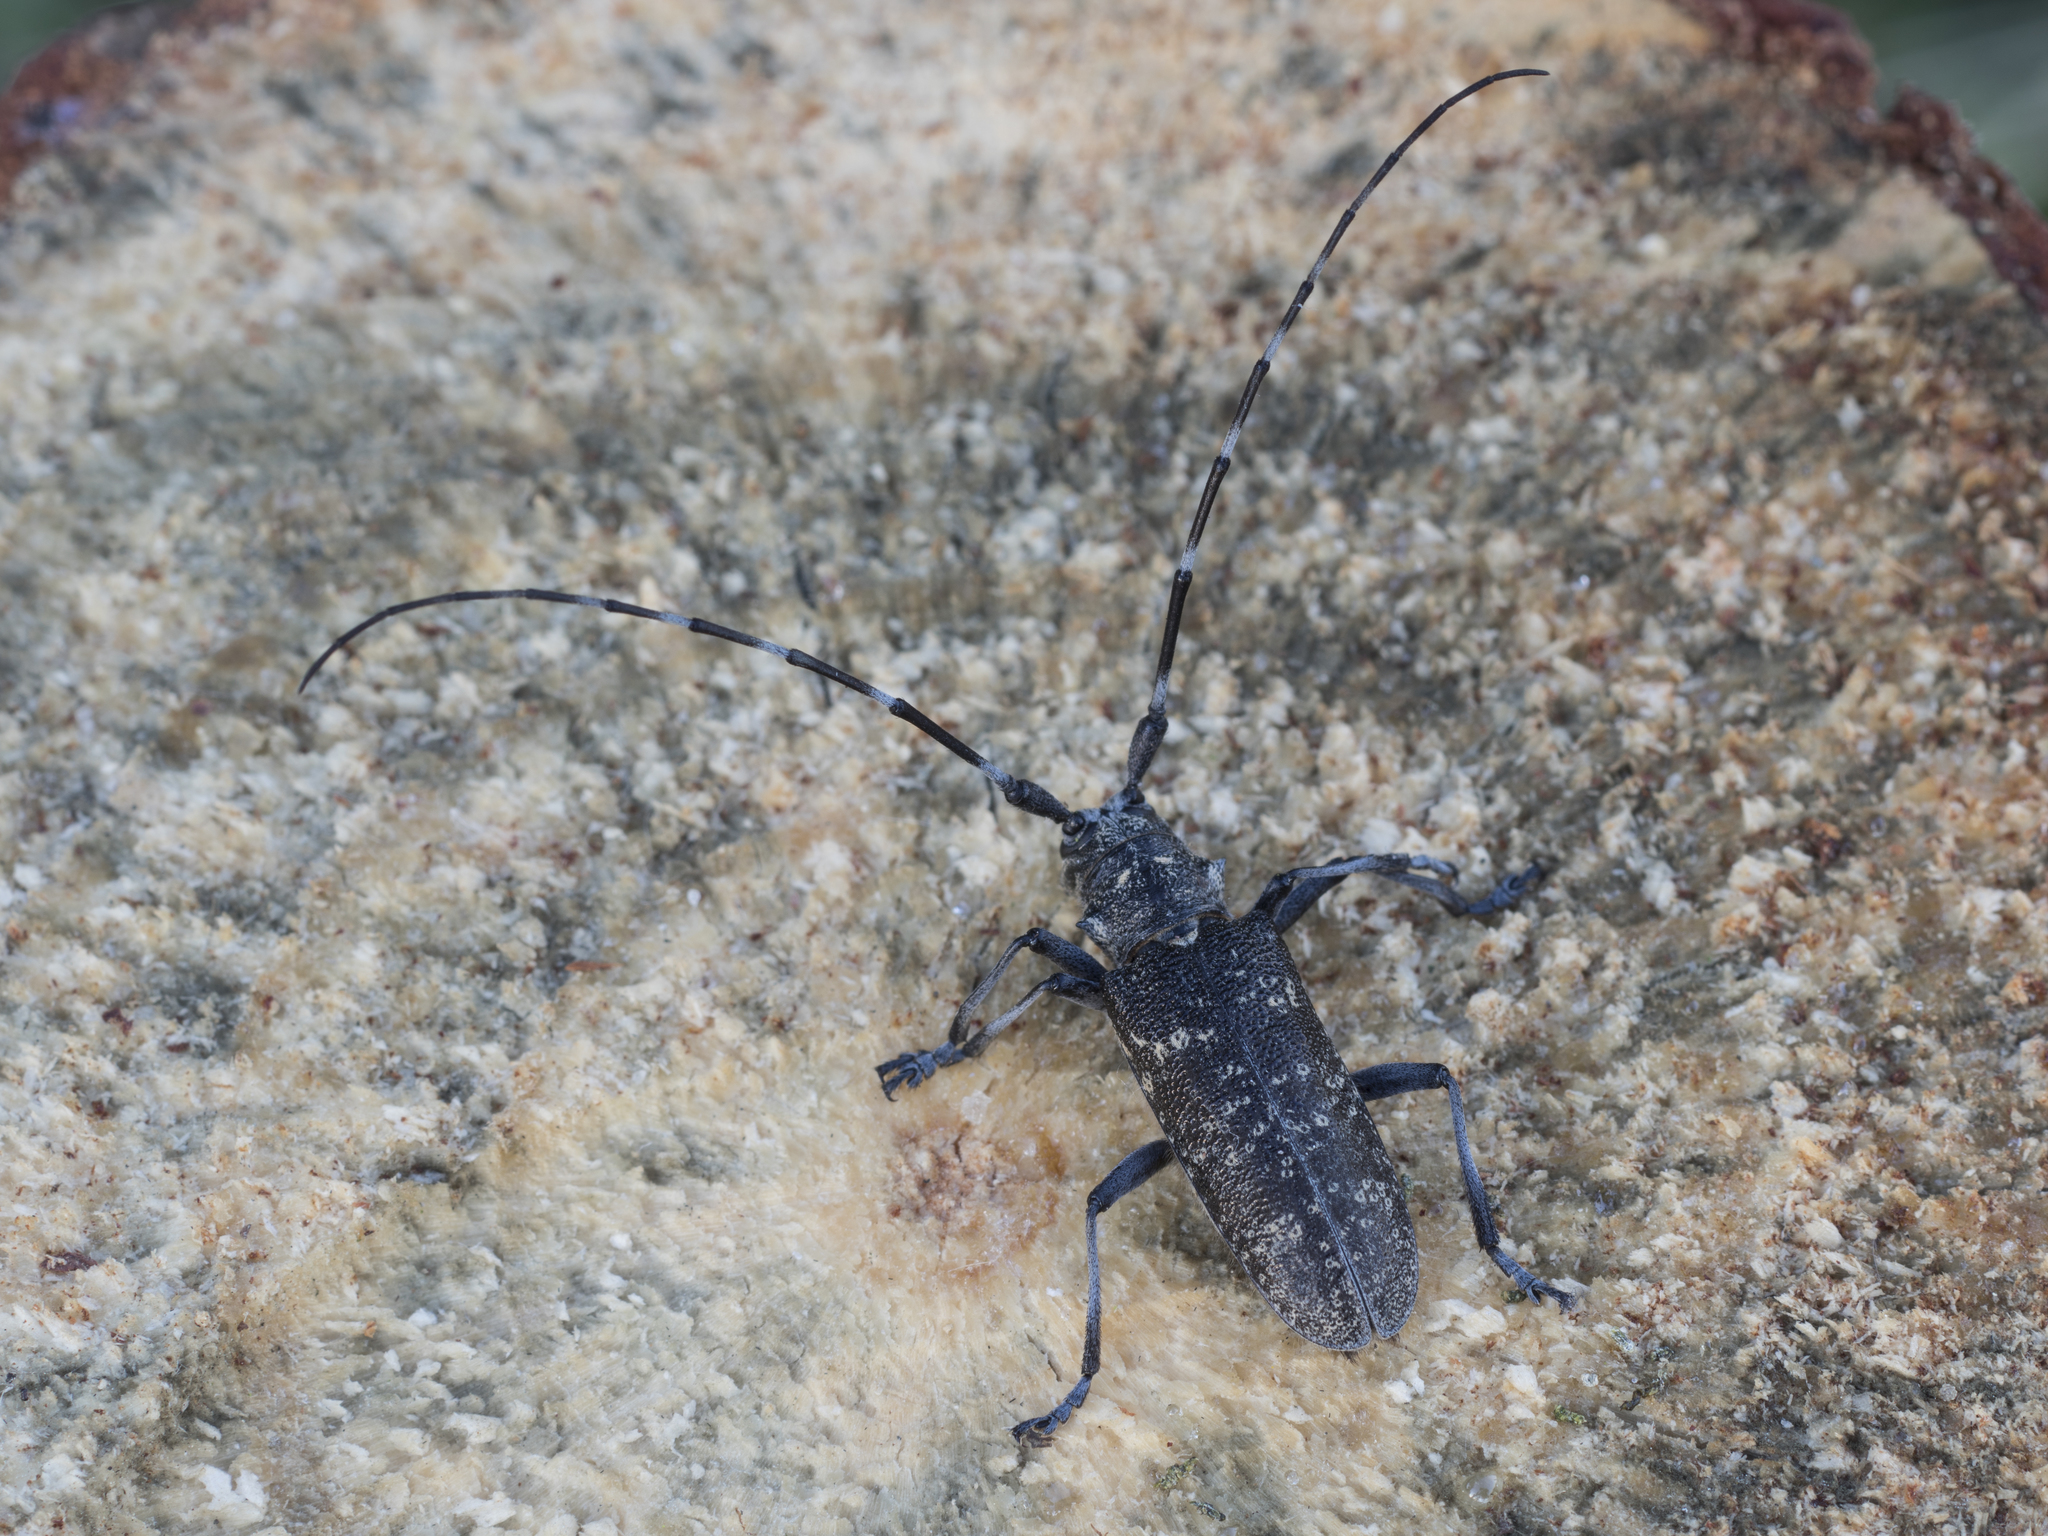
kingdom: Animalia
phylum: Arthropoda
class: Insecta
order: Coleoptera
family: Cerambycidae
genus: Monochamus
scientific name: Monochamus sutor
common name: Pine sawyer
